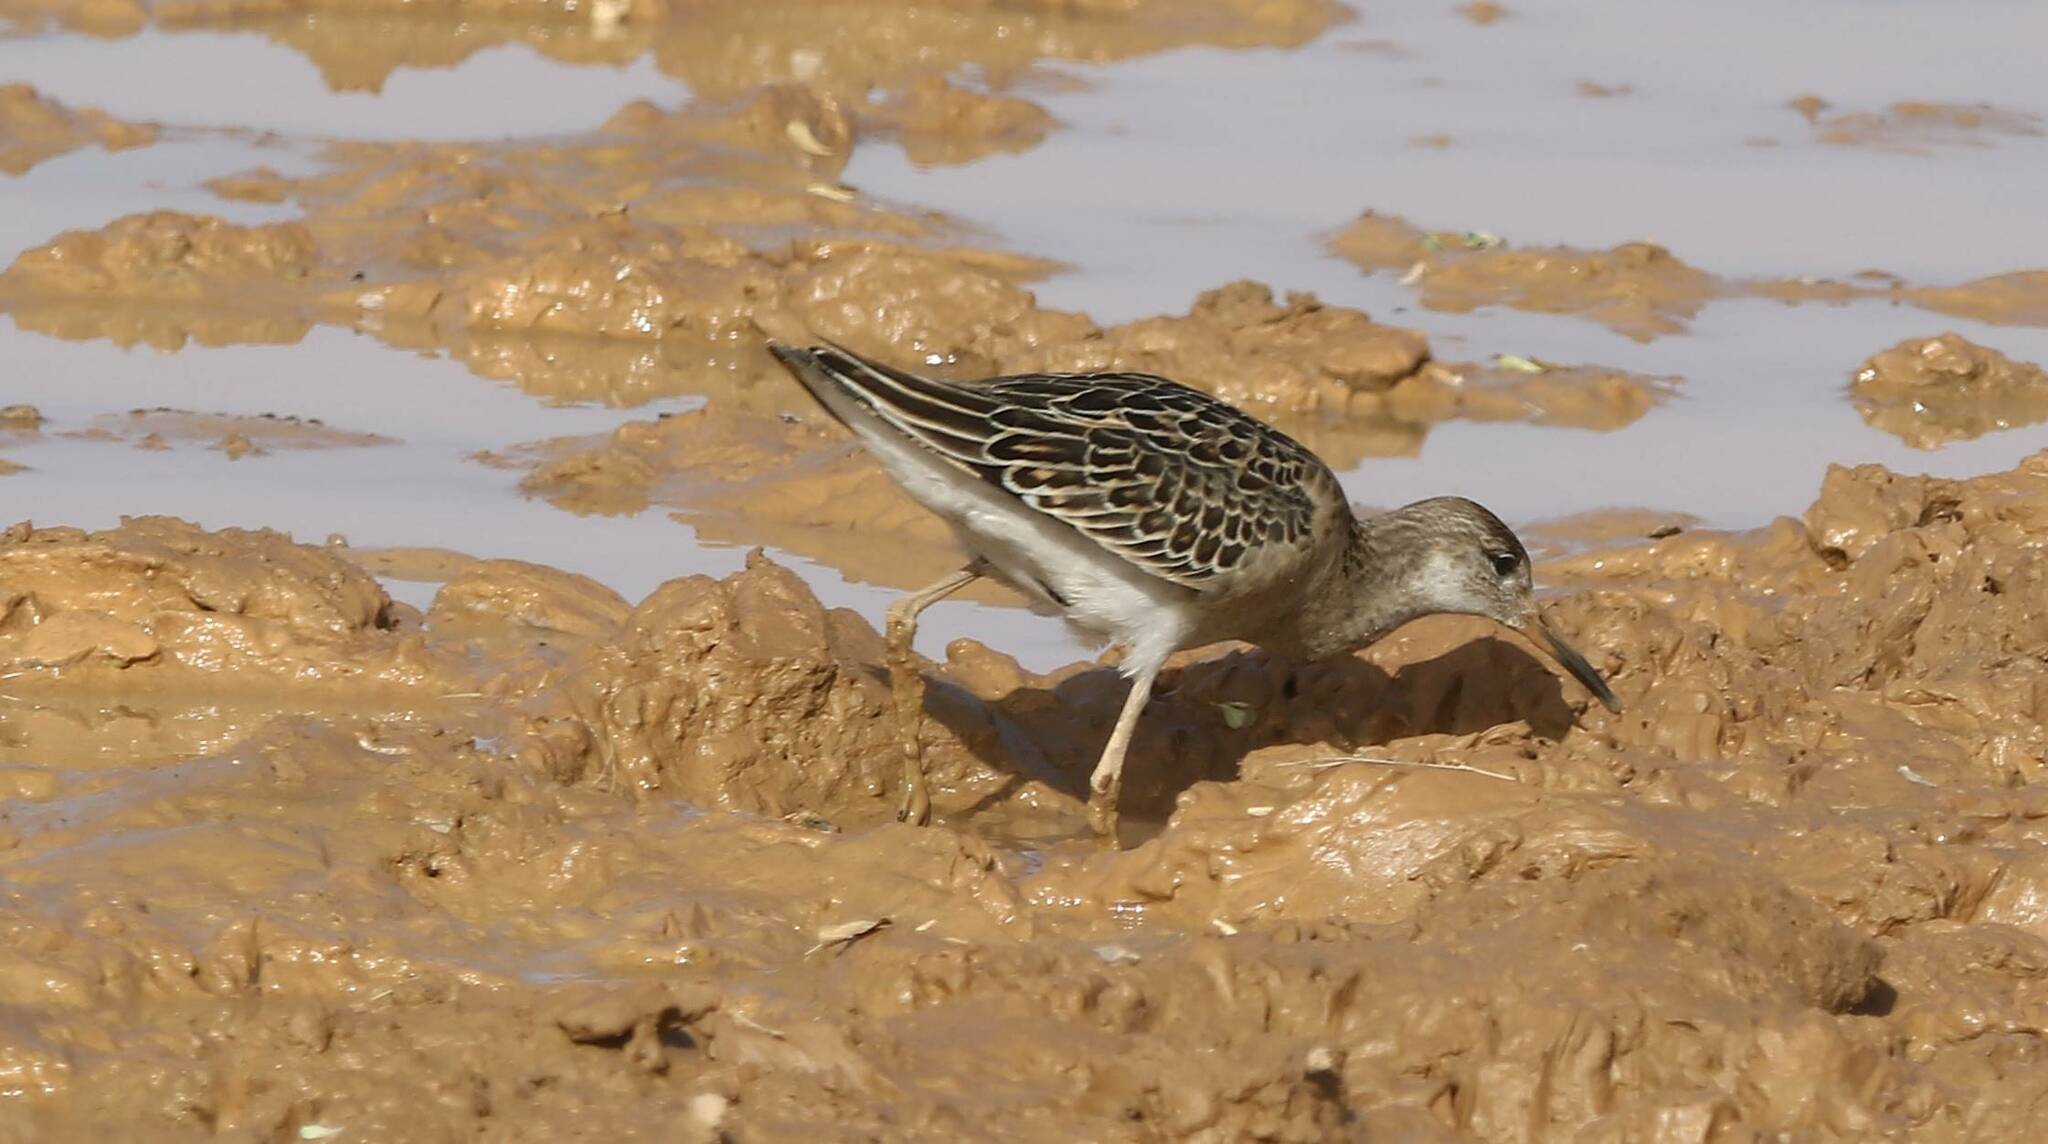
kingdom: Animalia
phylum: Chordata
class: Aves
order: Charadriiformes
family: Scolopacidae
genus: Calidris
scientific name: Calidris pugnax
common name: Ruff
